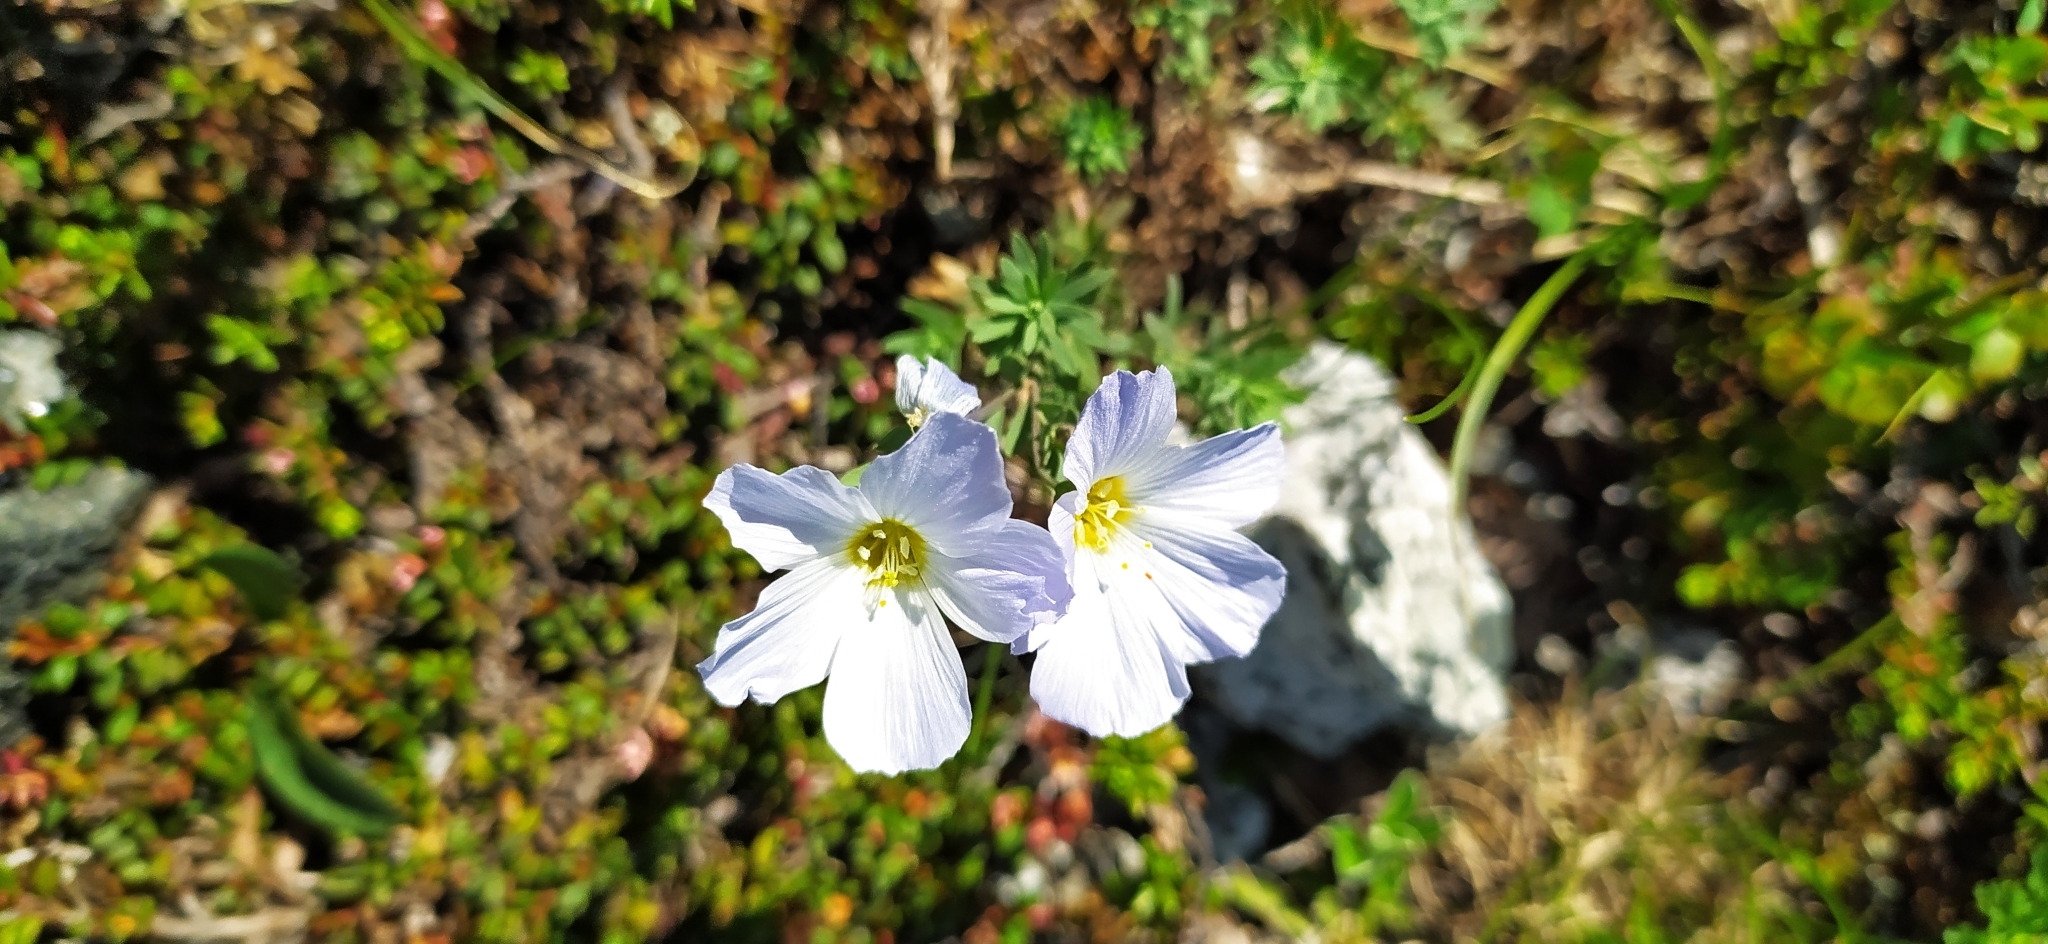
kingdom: Plantae
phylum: Tracheophyta
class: Magnoliopsida
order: Malpighiales
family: Linaceae
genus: Linum
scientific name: Linum komarovii
